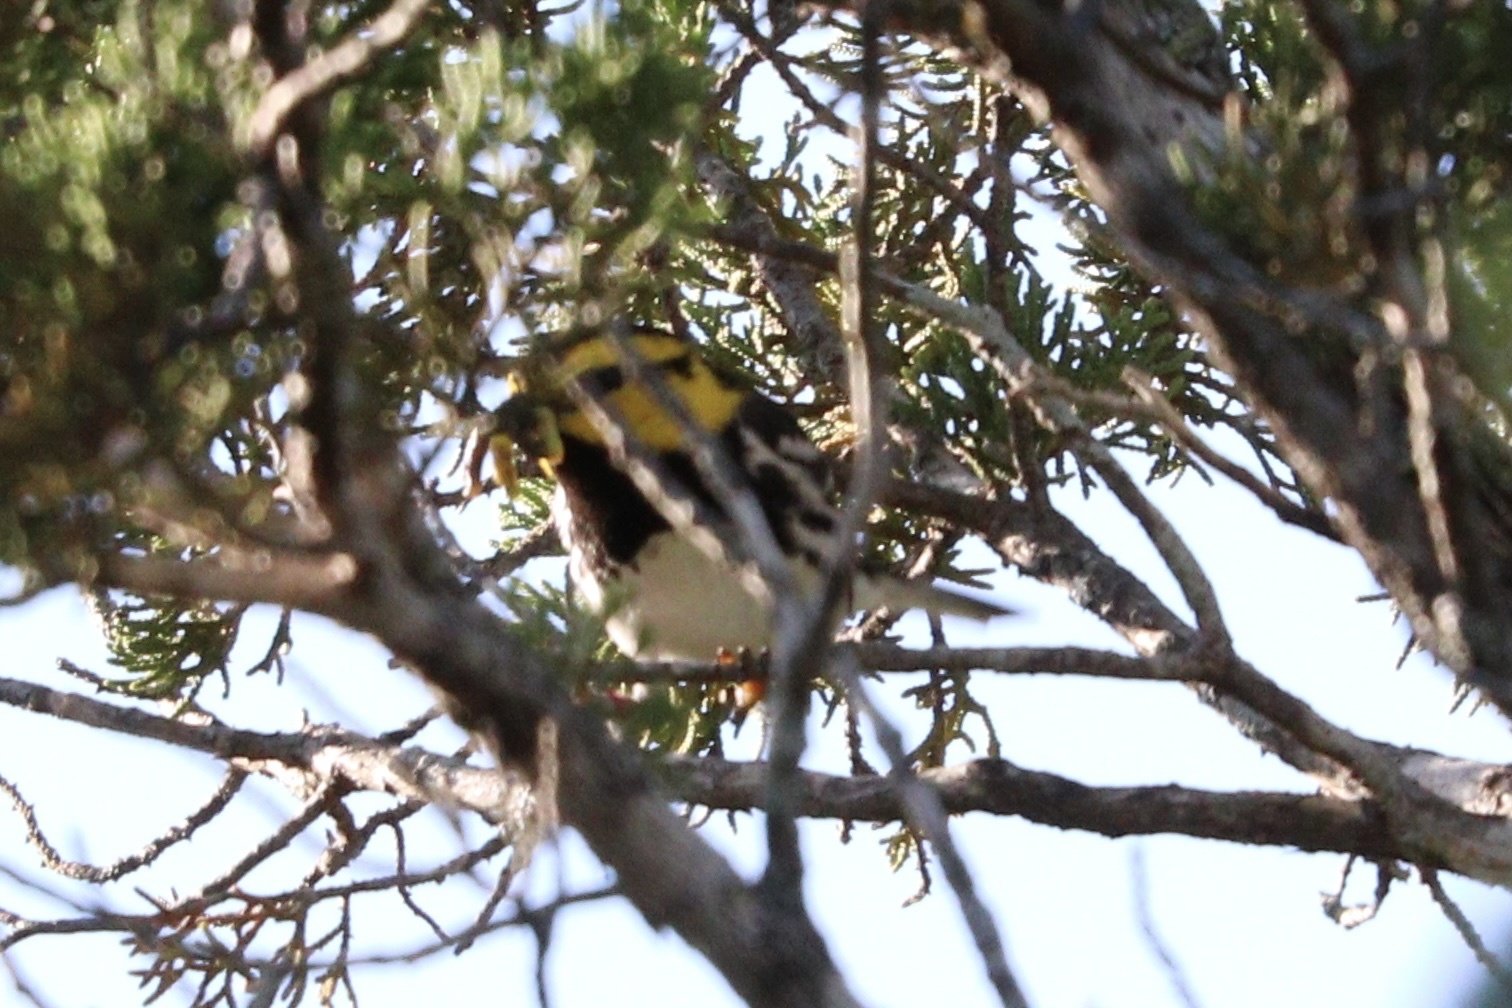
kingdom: Animalia
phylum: Chordata
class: Aves
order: Passeriformes
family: Parulidae
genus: Setophaga
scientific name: Setophaga chrysoparia
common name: Golden-cheeked warbler
